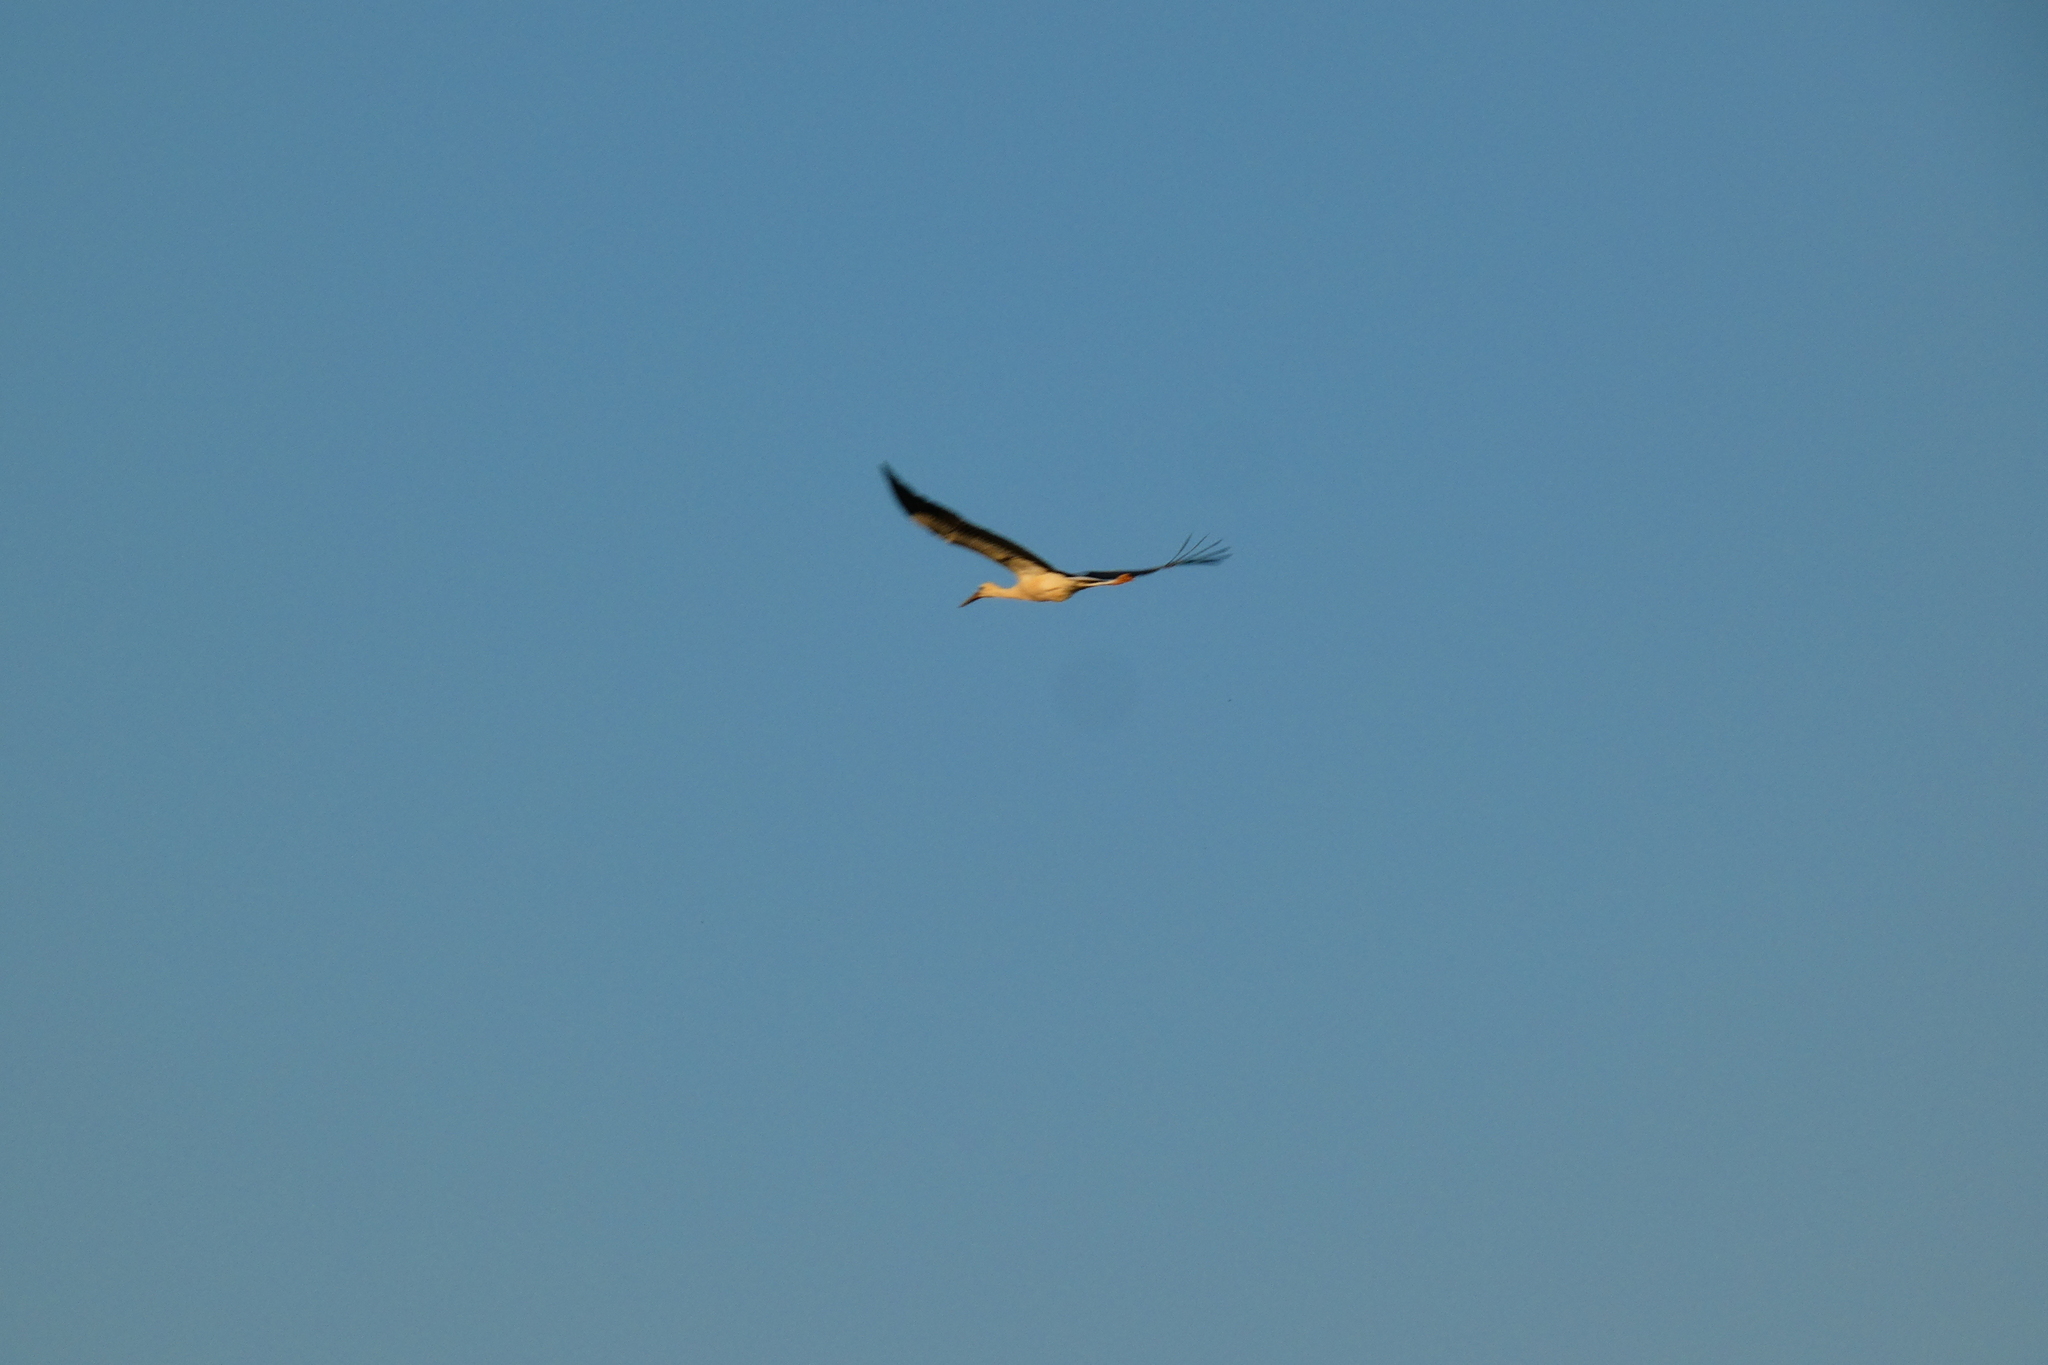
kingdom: Animalia
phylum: Chordata
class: Aves
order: Ciconiiformes
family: Ciconiidae
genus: Ciconia
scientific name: Ciconia ciconia
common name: White stork
